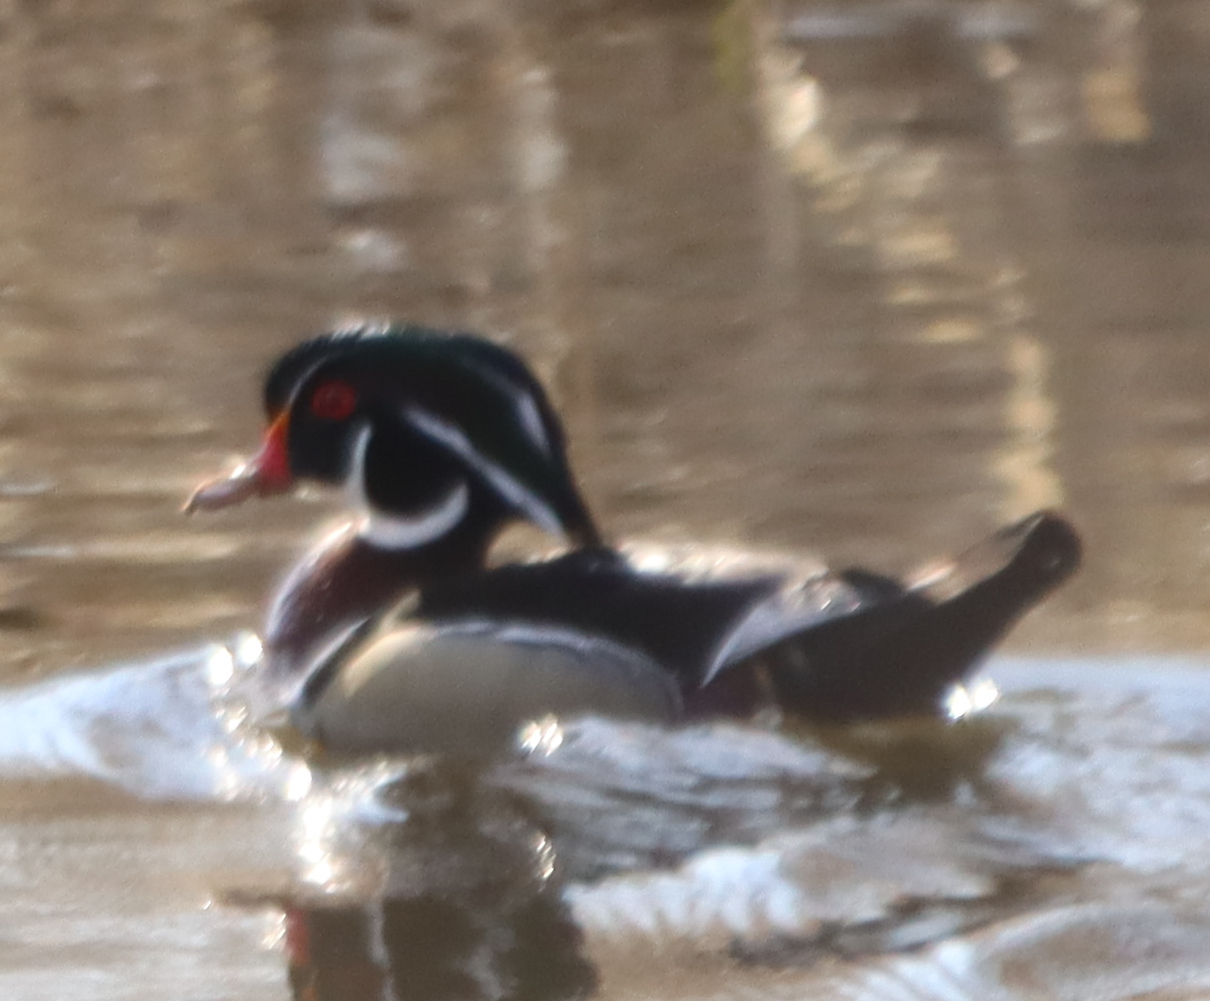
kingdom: Animalia
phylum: Chordata
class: Aves
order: Anseriformes
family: Anatidae
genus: Aix
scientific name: Aix sponsa
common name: Wood duck
